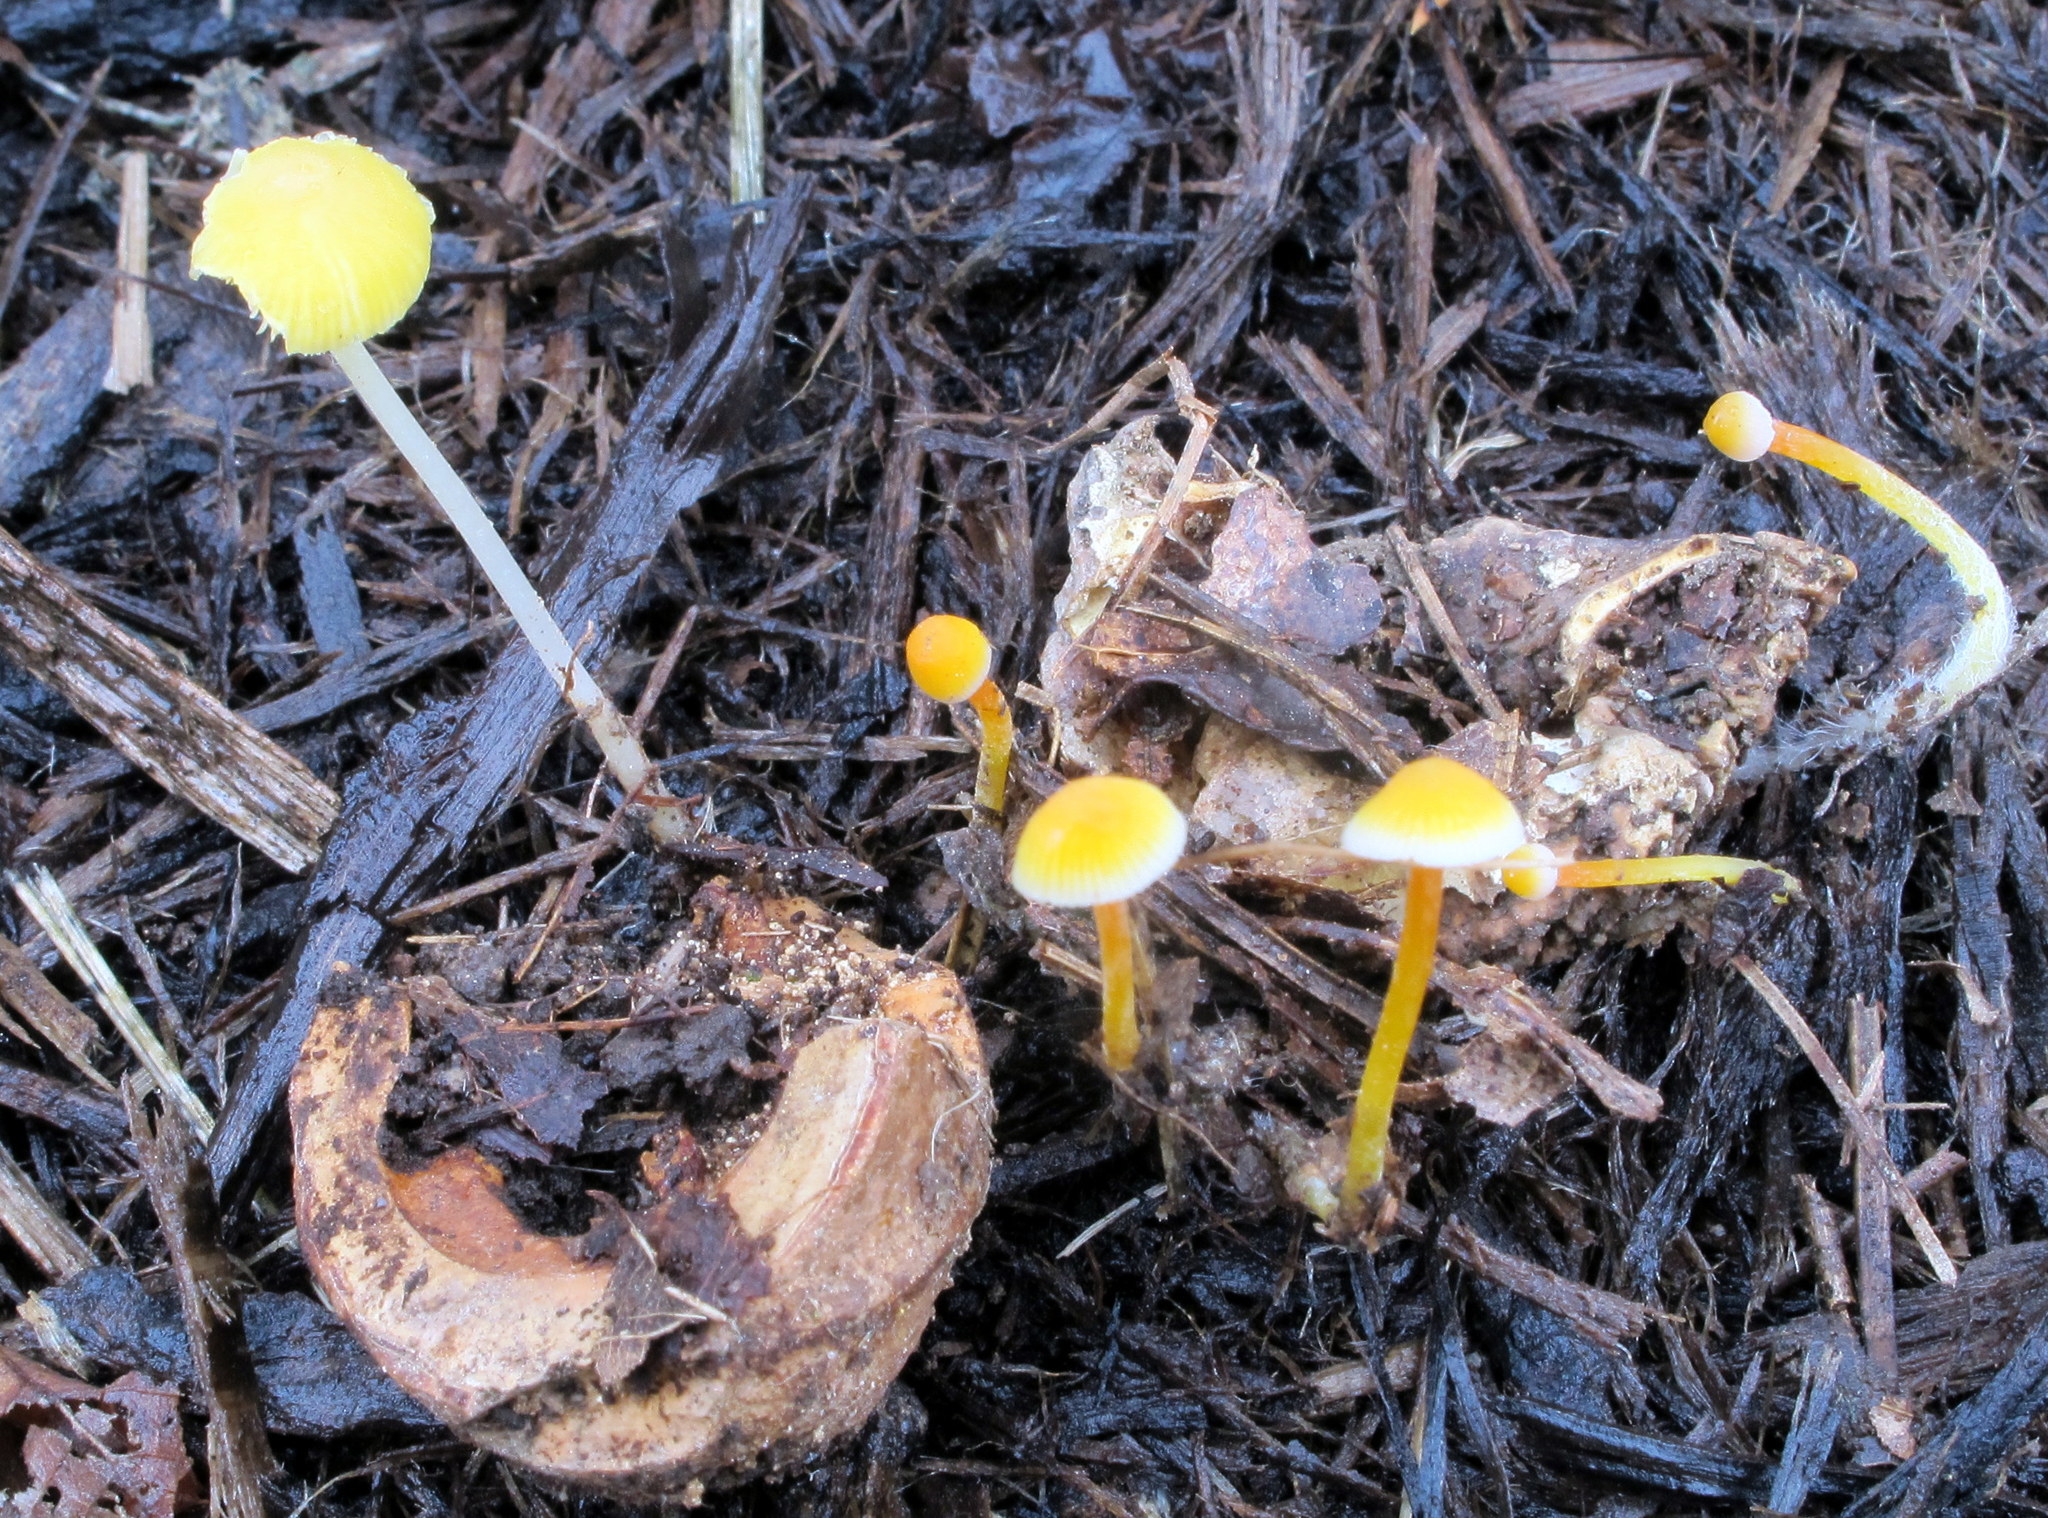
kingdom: Fungi
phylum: Basidiomycota
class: Agaricomycetes
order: Agaricales
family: Mycenaceae
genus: Mycena
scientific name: Mycena crocea
